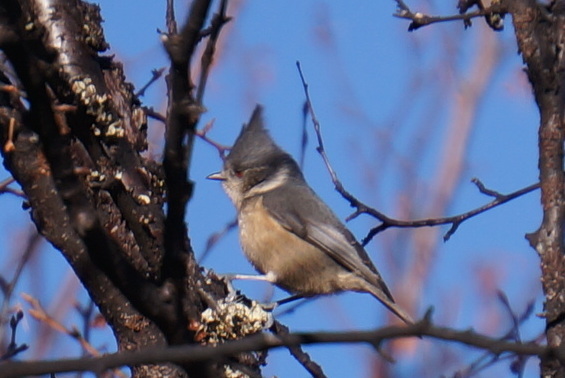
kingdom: Animalia
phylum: Chordata
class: Aves
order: Passeriformes
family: Paridae
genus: Lophophanes
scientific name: Lophophanes dichrous
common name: Grey crested tit
